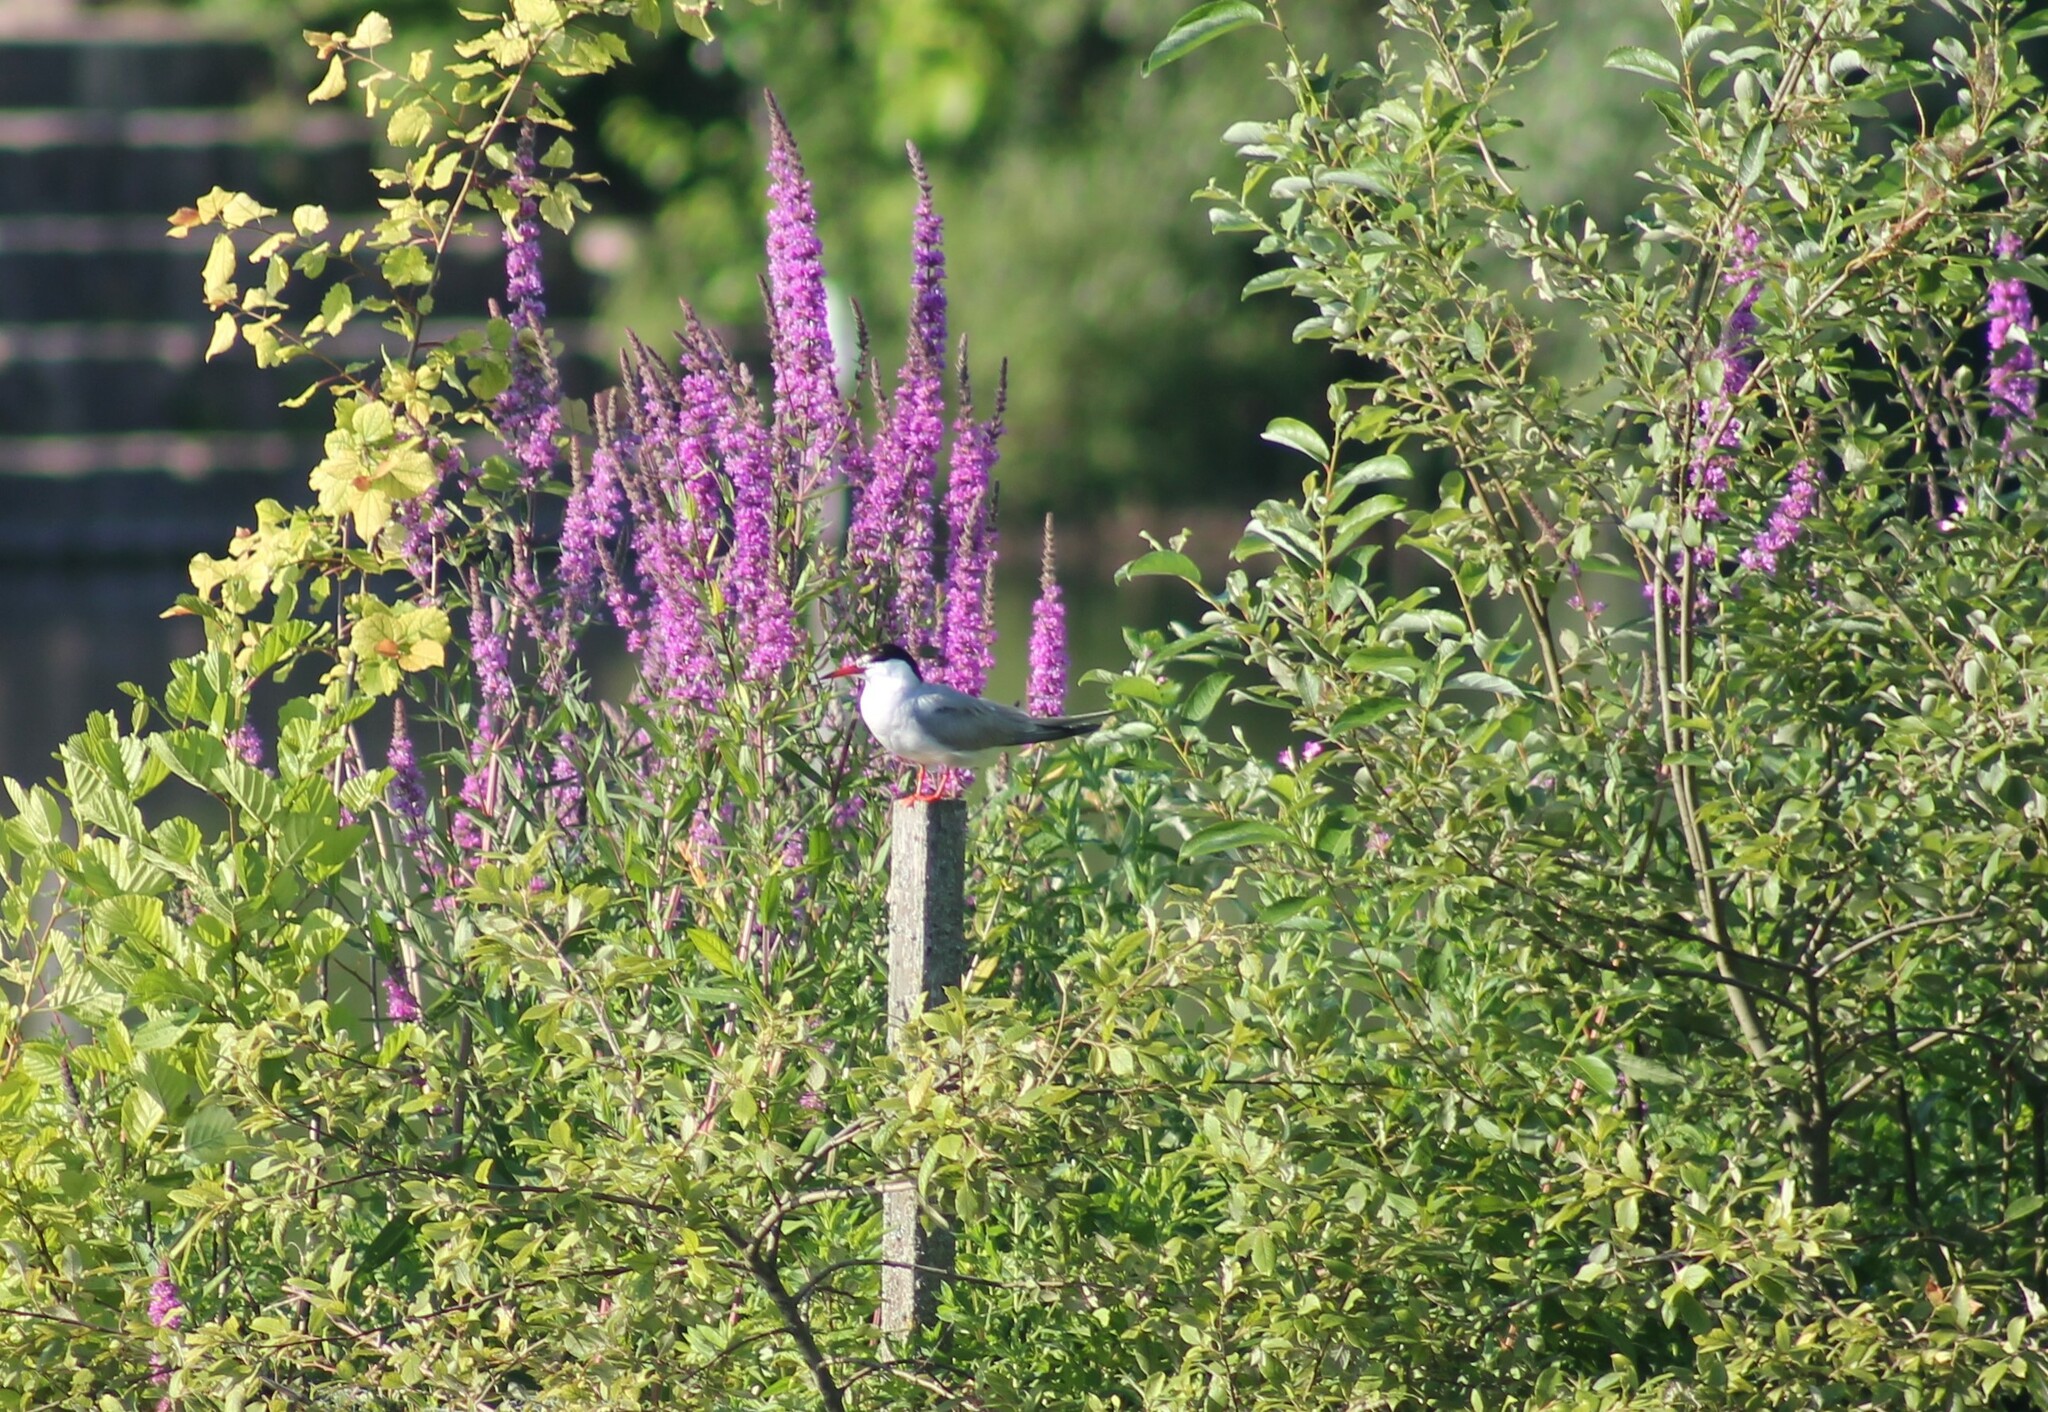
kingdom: Animalia
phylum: Chordata
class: Aves
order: Charadriiformes
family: Laridae
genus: Sterna
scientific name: Sterna hirundo
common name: Common tern
